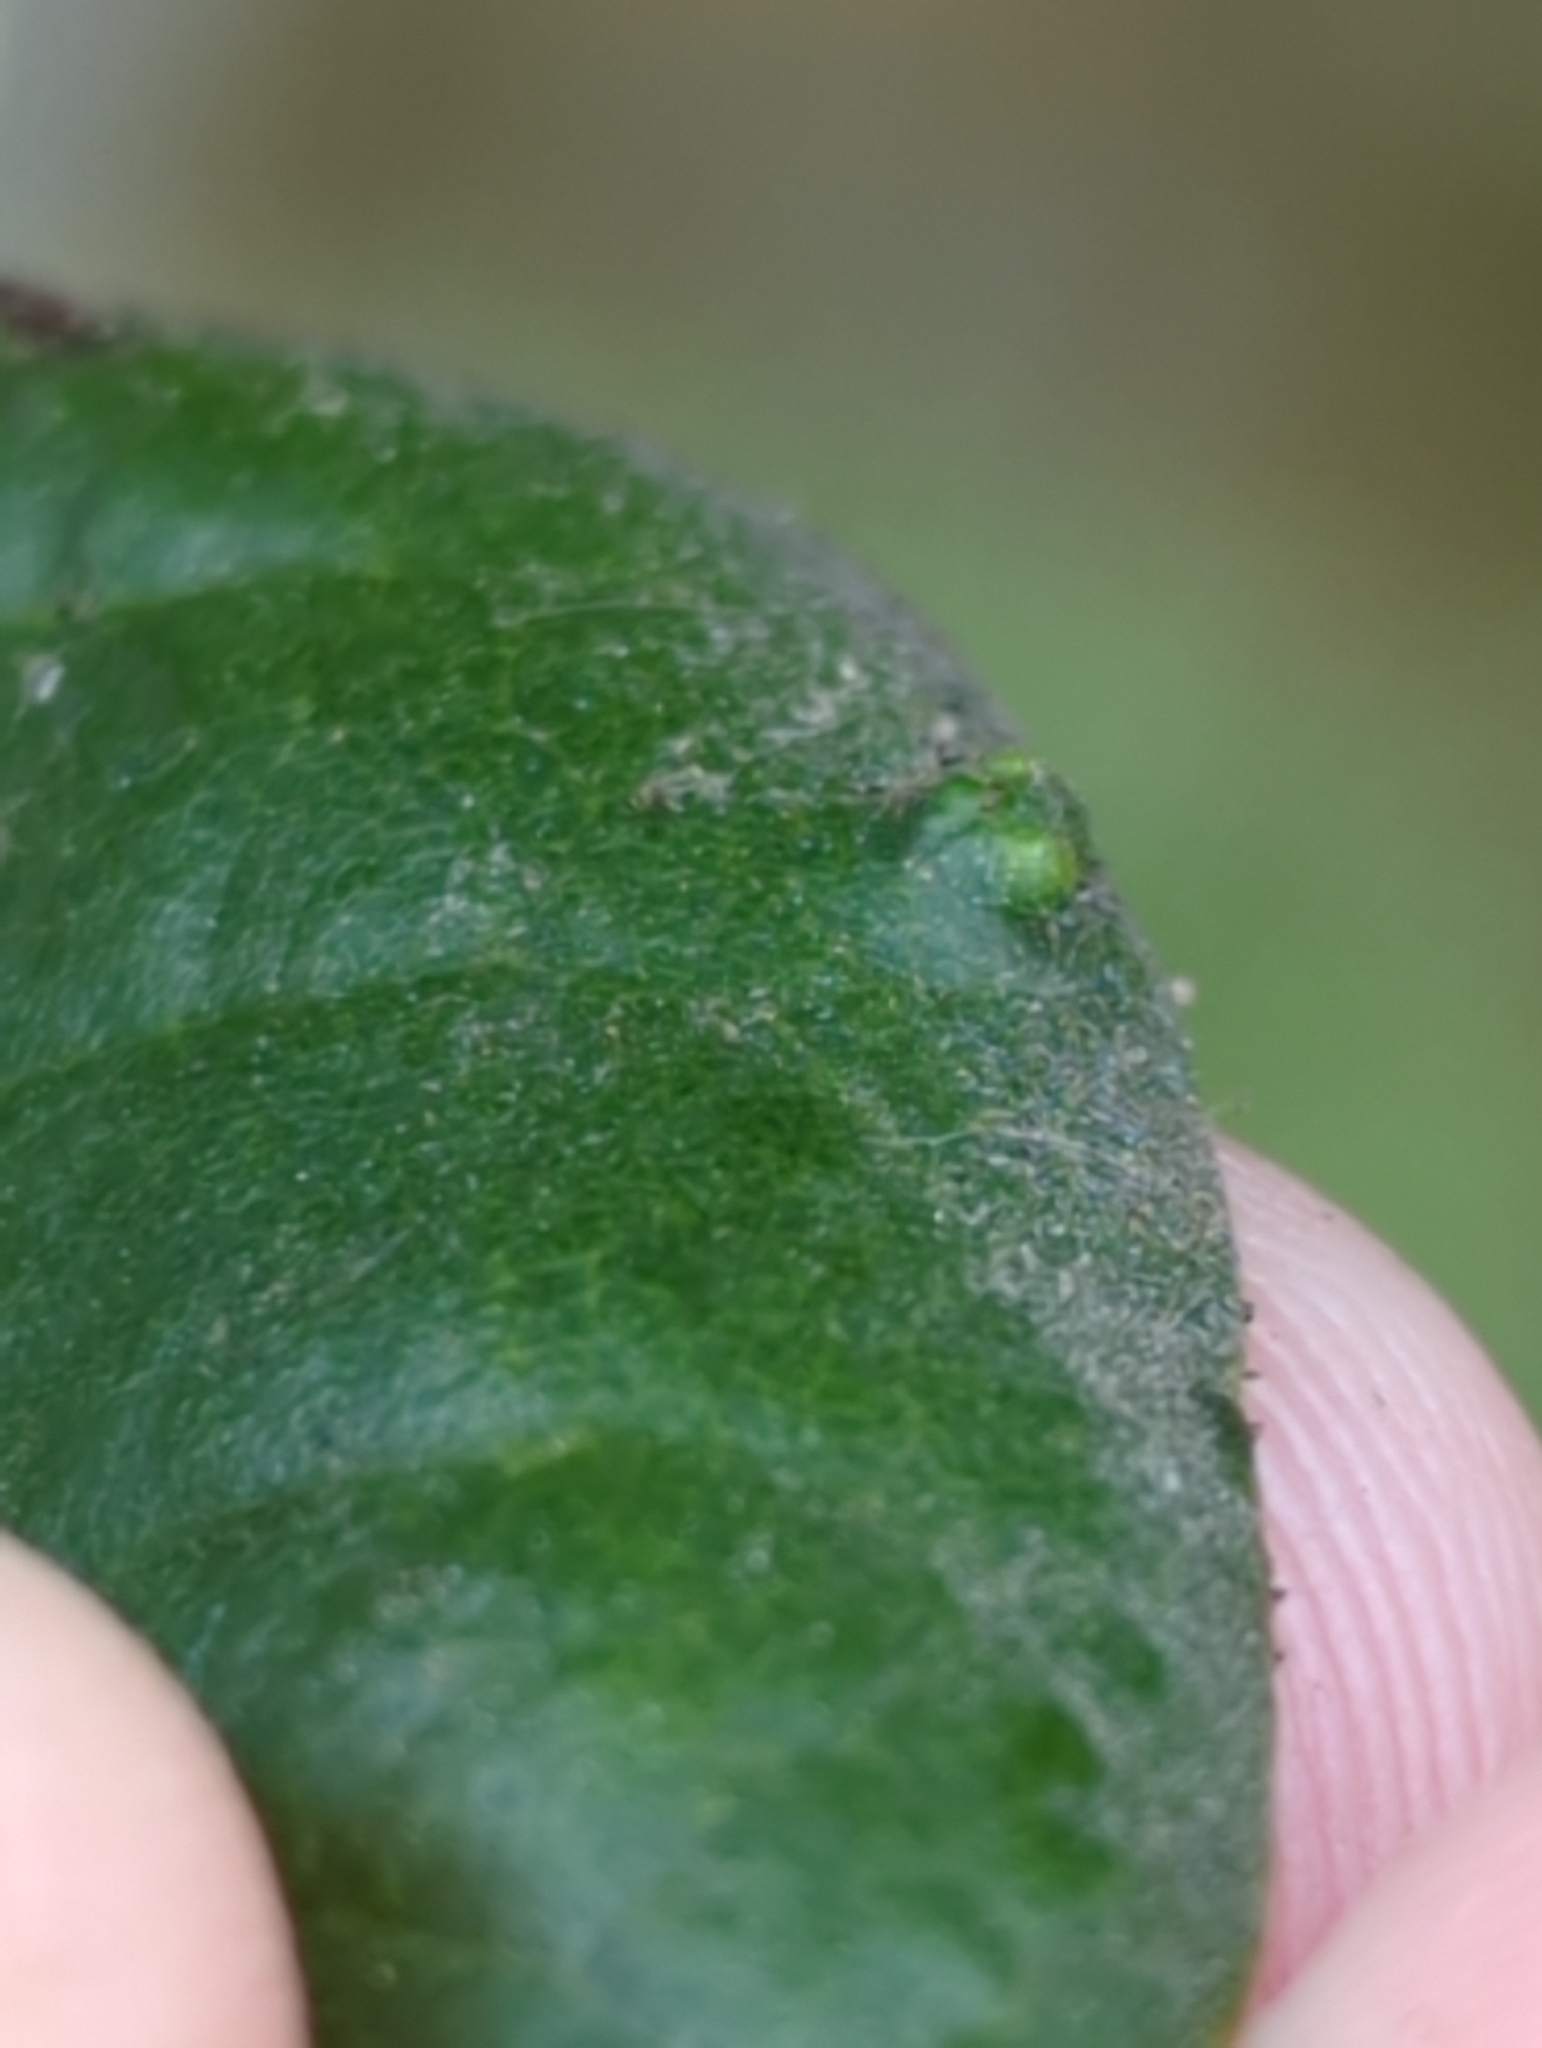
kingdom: Animalia
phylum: Arthropoda
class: Arachnida
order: Trombidiformes
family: Eriophyidae
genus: Aceria
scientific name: Aceria
